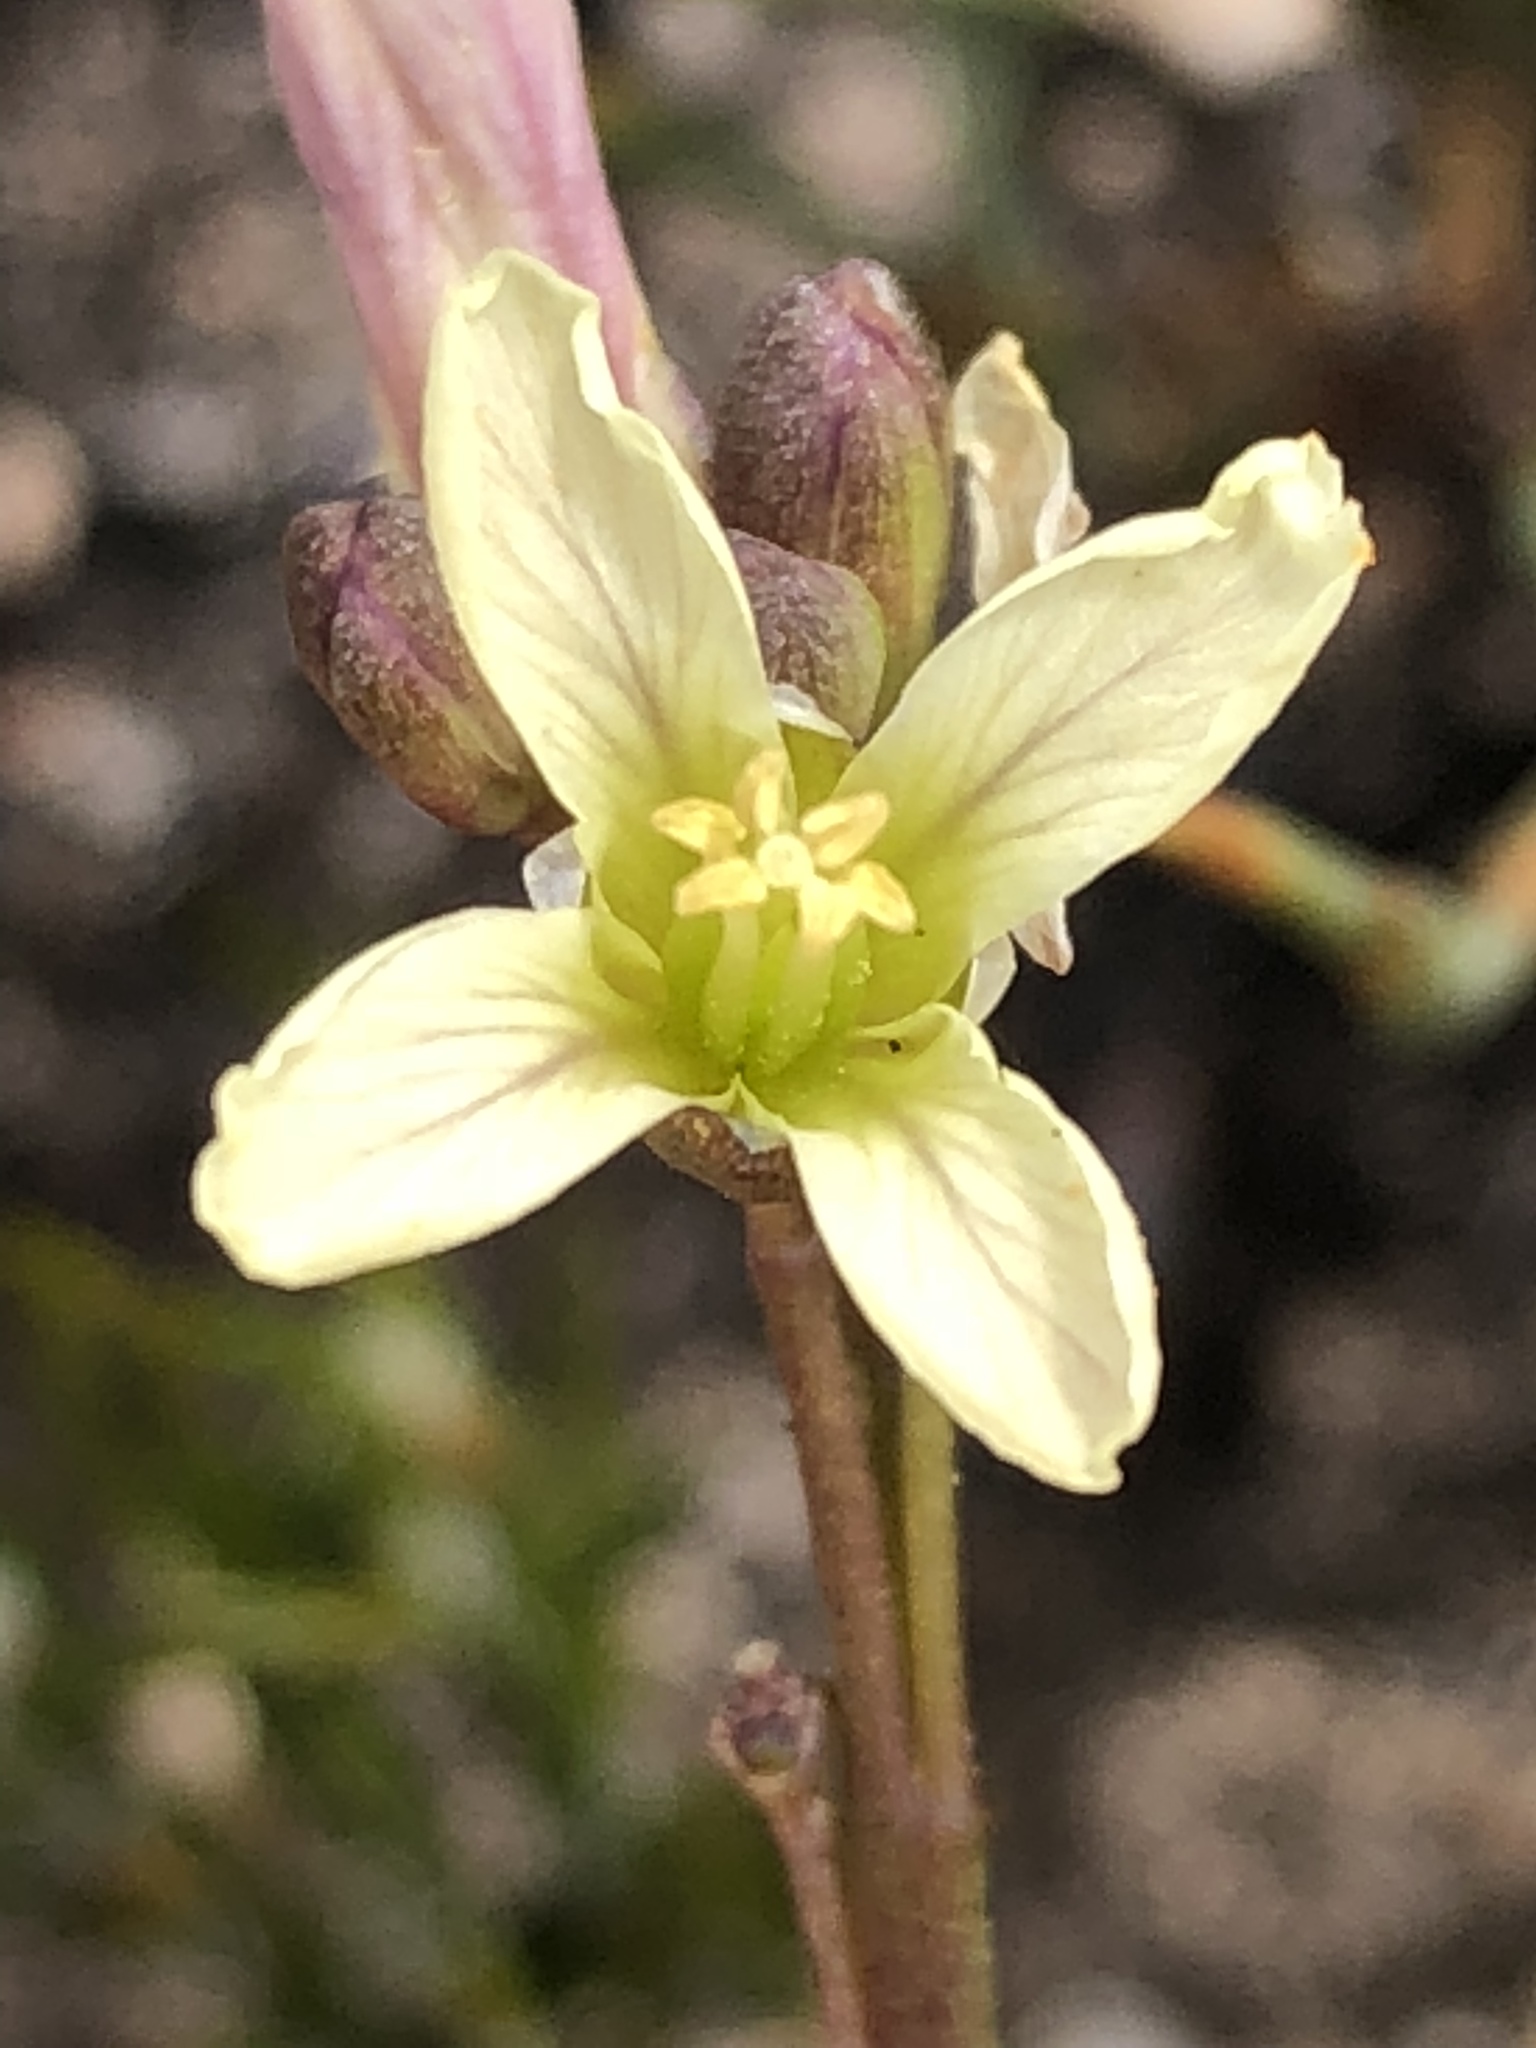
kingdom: Plantae
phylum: Tracheophyta
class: Magnoliopsida
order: Brassicales
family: Brassicaceae
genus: Heliophila
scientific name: Heliophila elongata
